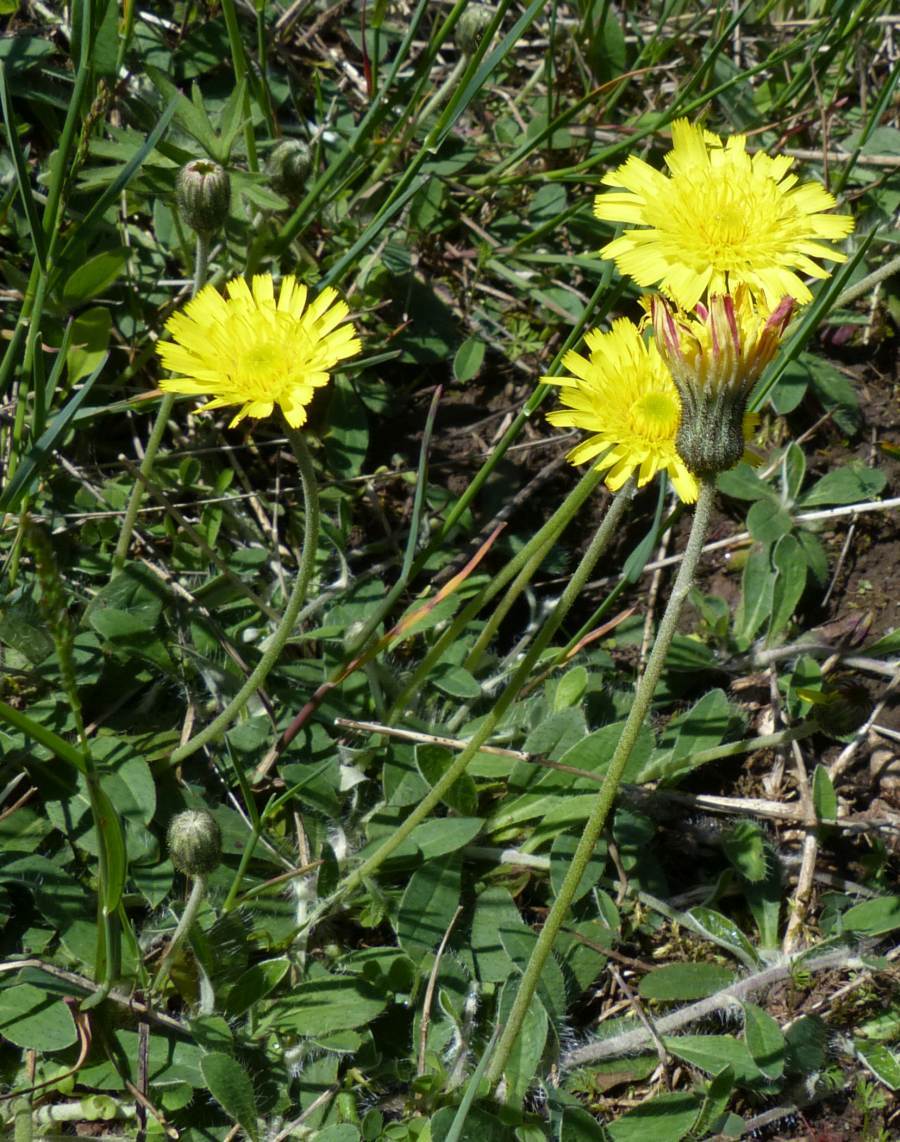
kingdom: Plantae
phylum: Tracheophyta
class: Magnoliopsida
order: Asterales
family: Asteraceae
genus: Pilosella
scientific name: Pilosella officinarum
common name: Mouse-ear hawkweed
